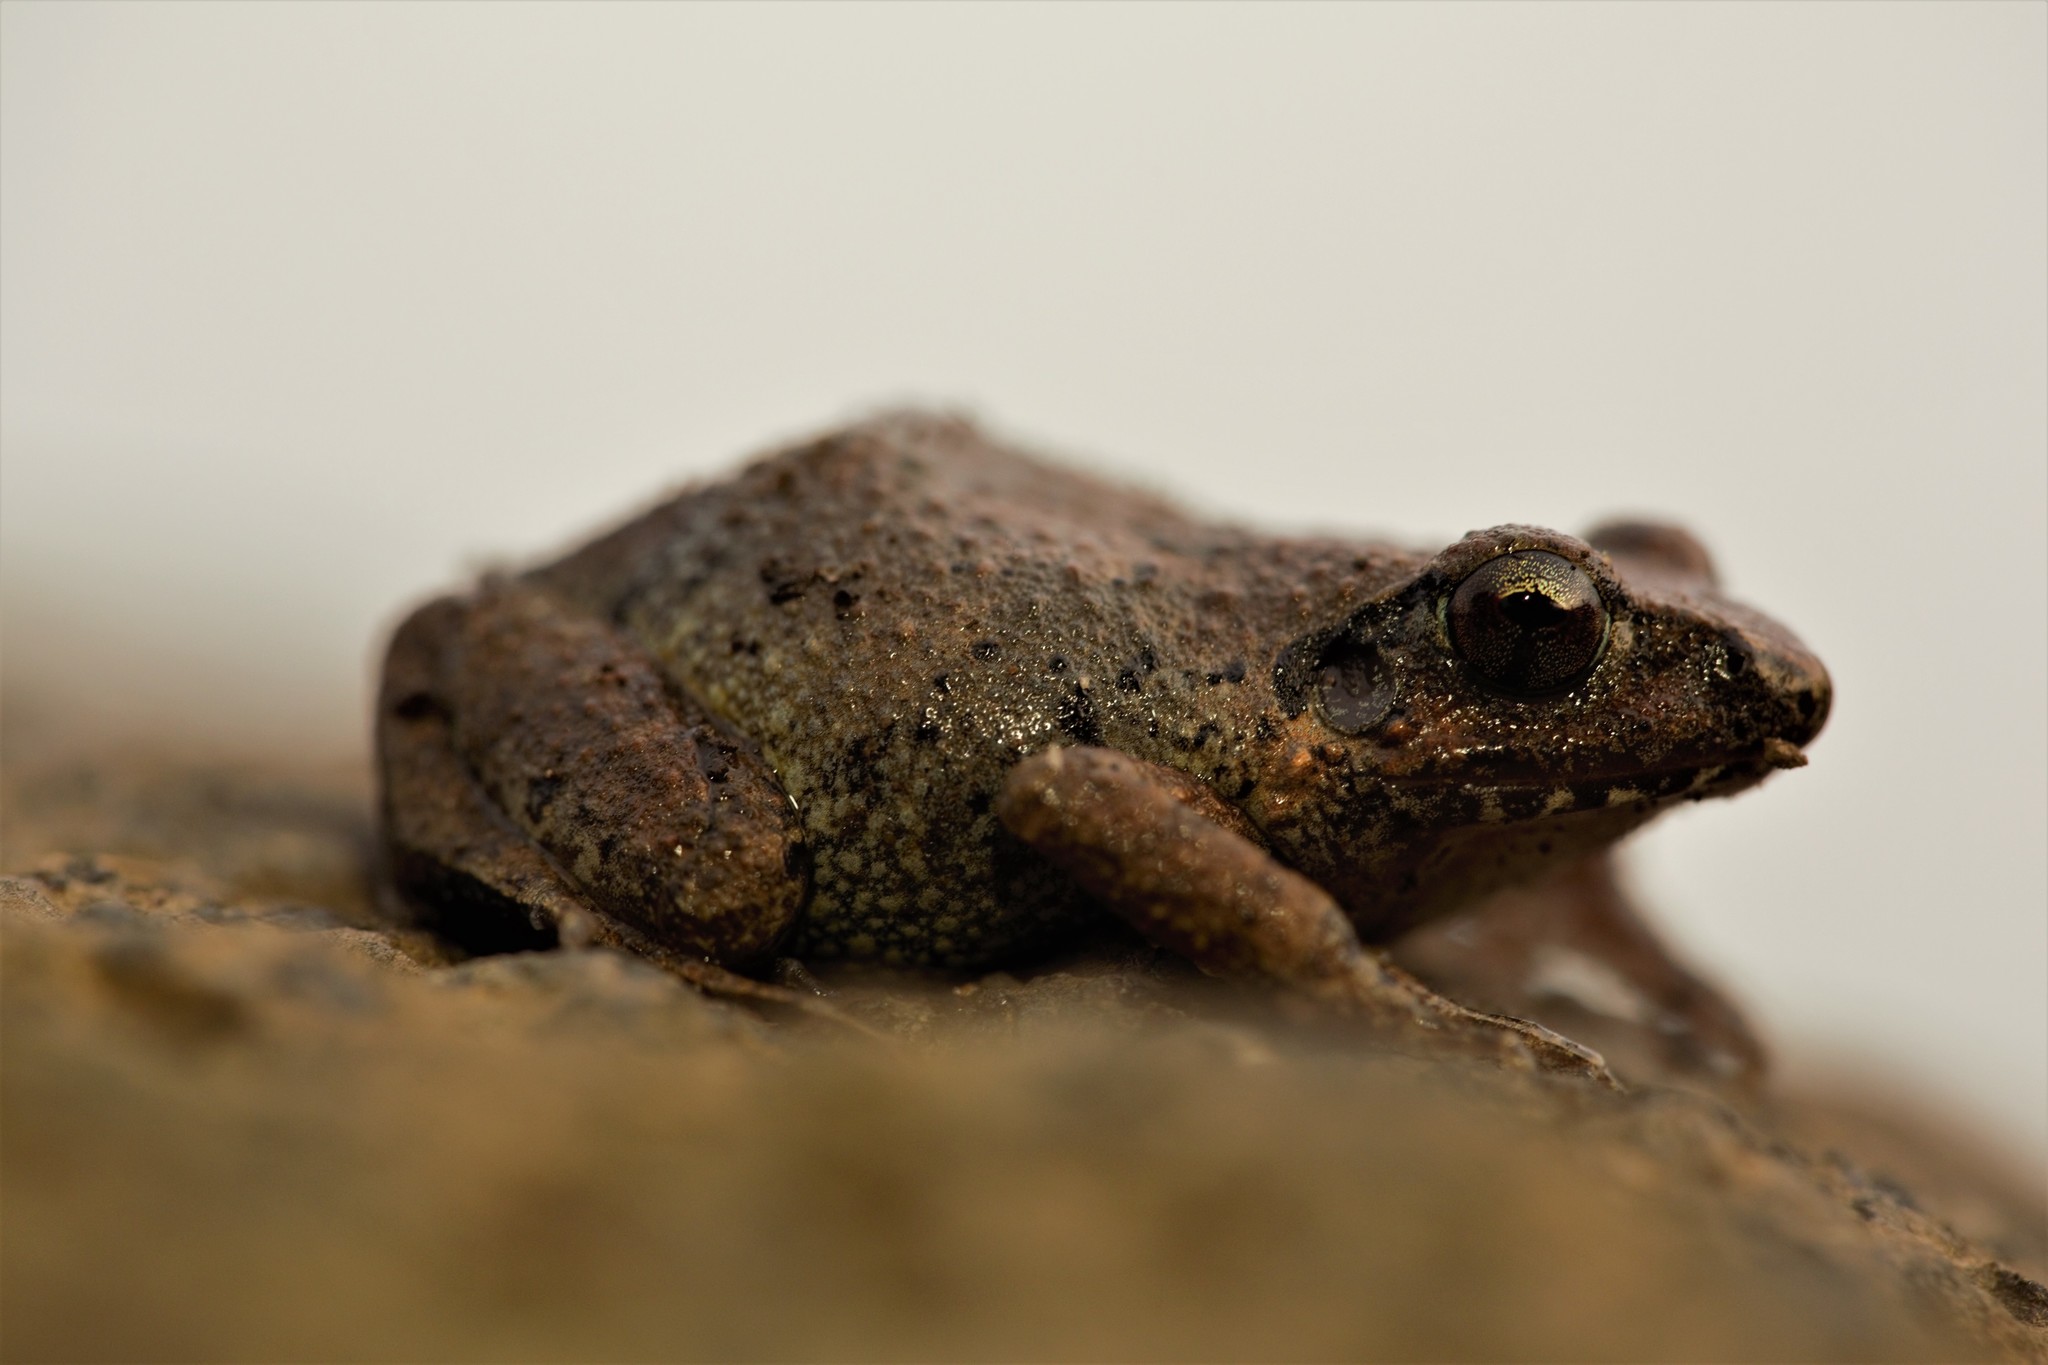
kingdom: Animalia
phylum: Chordata
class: Amphibia
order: Anura
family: Arthroleptidae
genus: Arthroleptis
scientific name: Arthroleptis poecilonotus
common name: West african screeching frog
